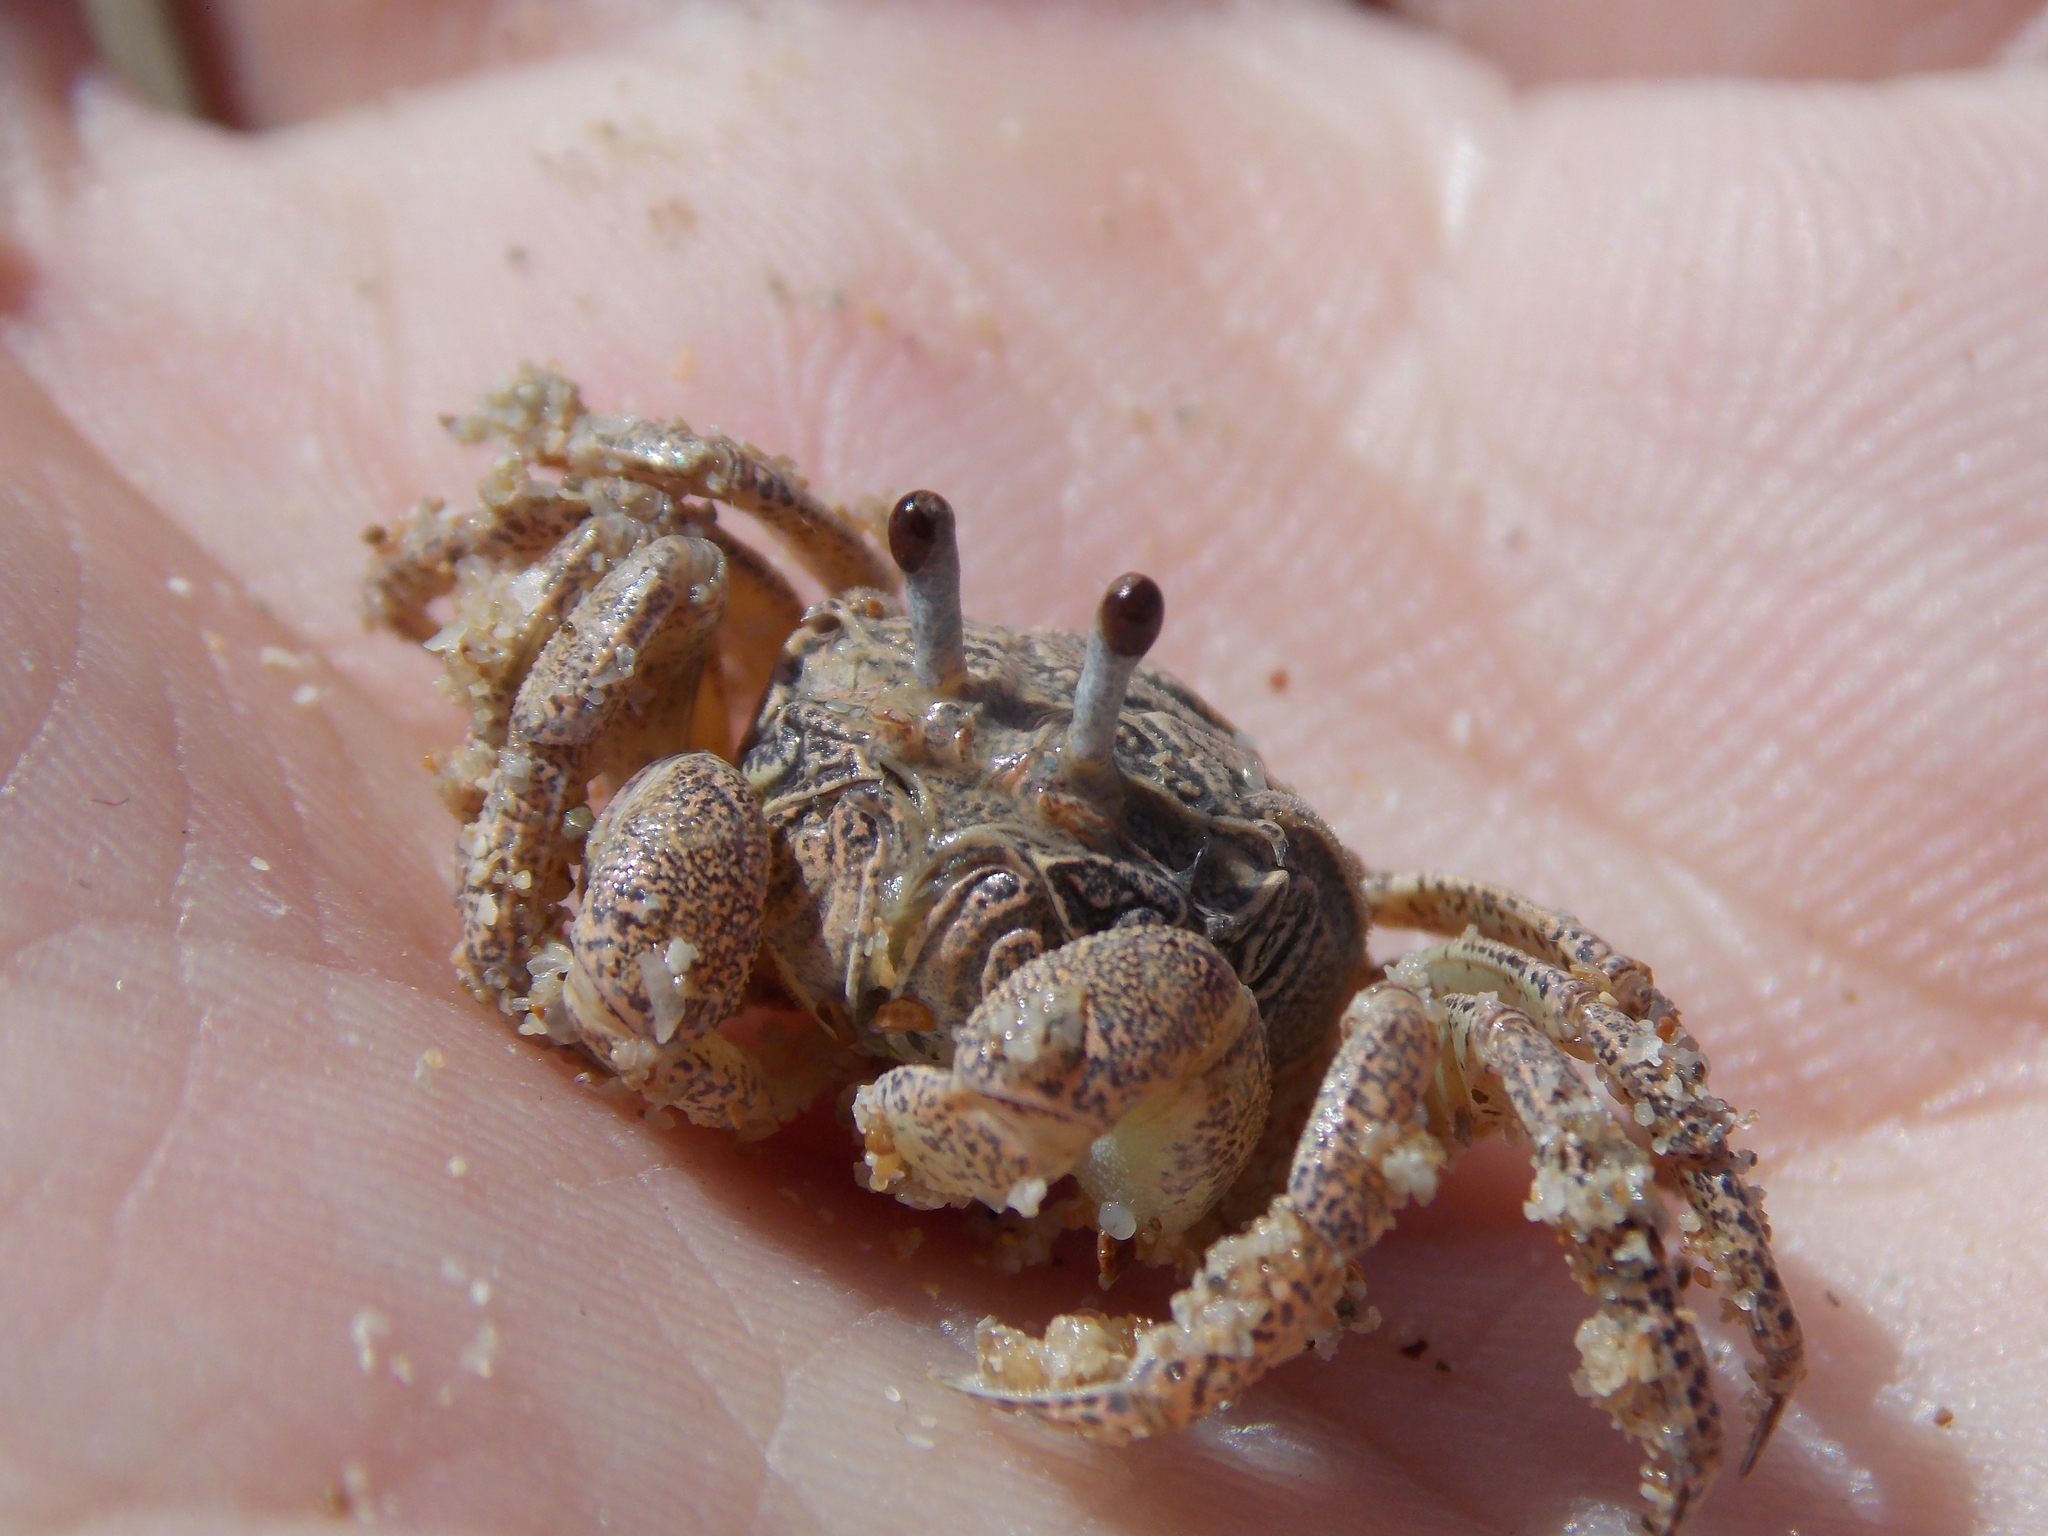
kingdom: Animalia
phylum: Arthropoda
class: Malacostraca
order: Decapoda
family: Dotillidae
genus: Dotilla
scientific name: Dotilla fenestrata
